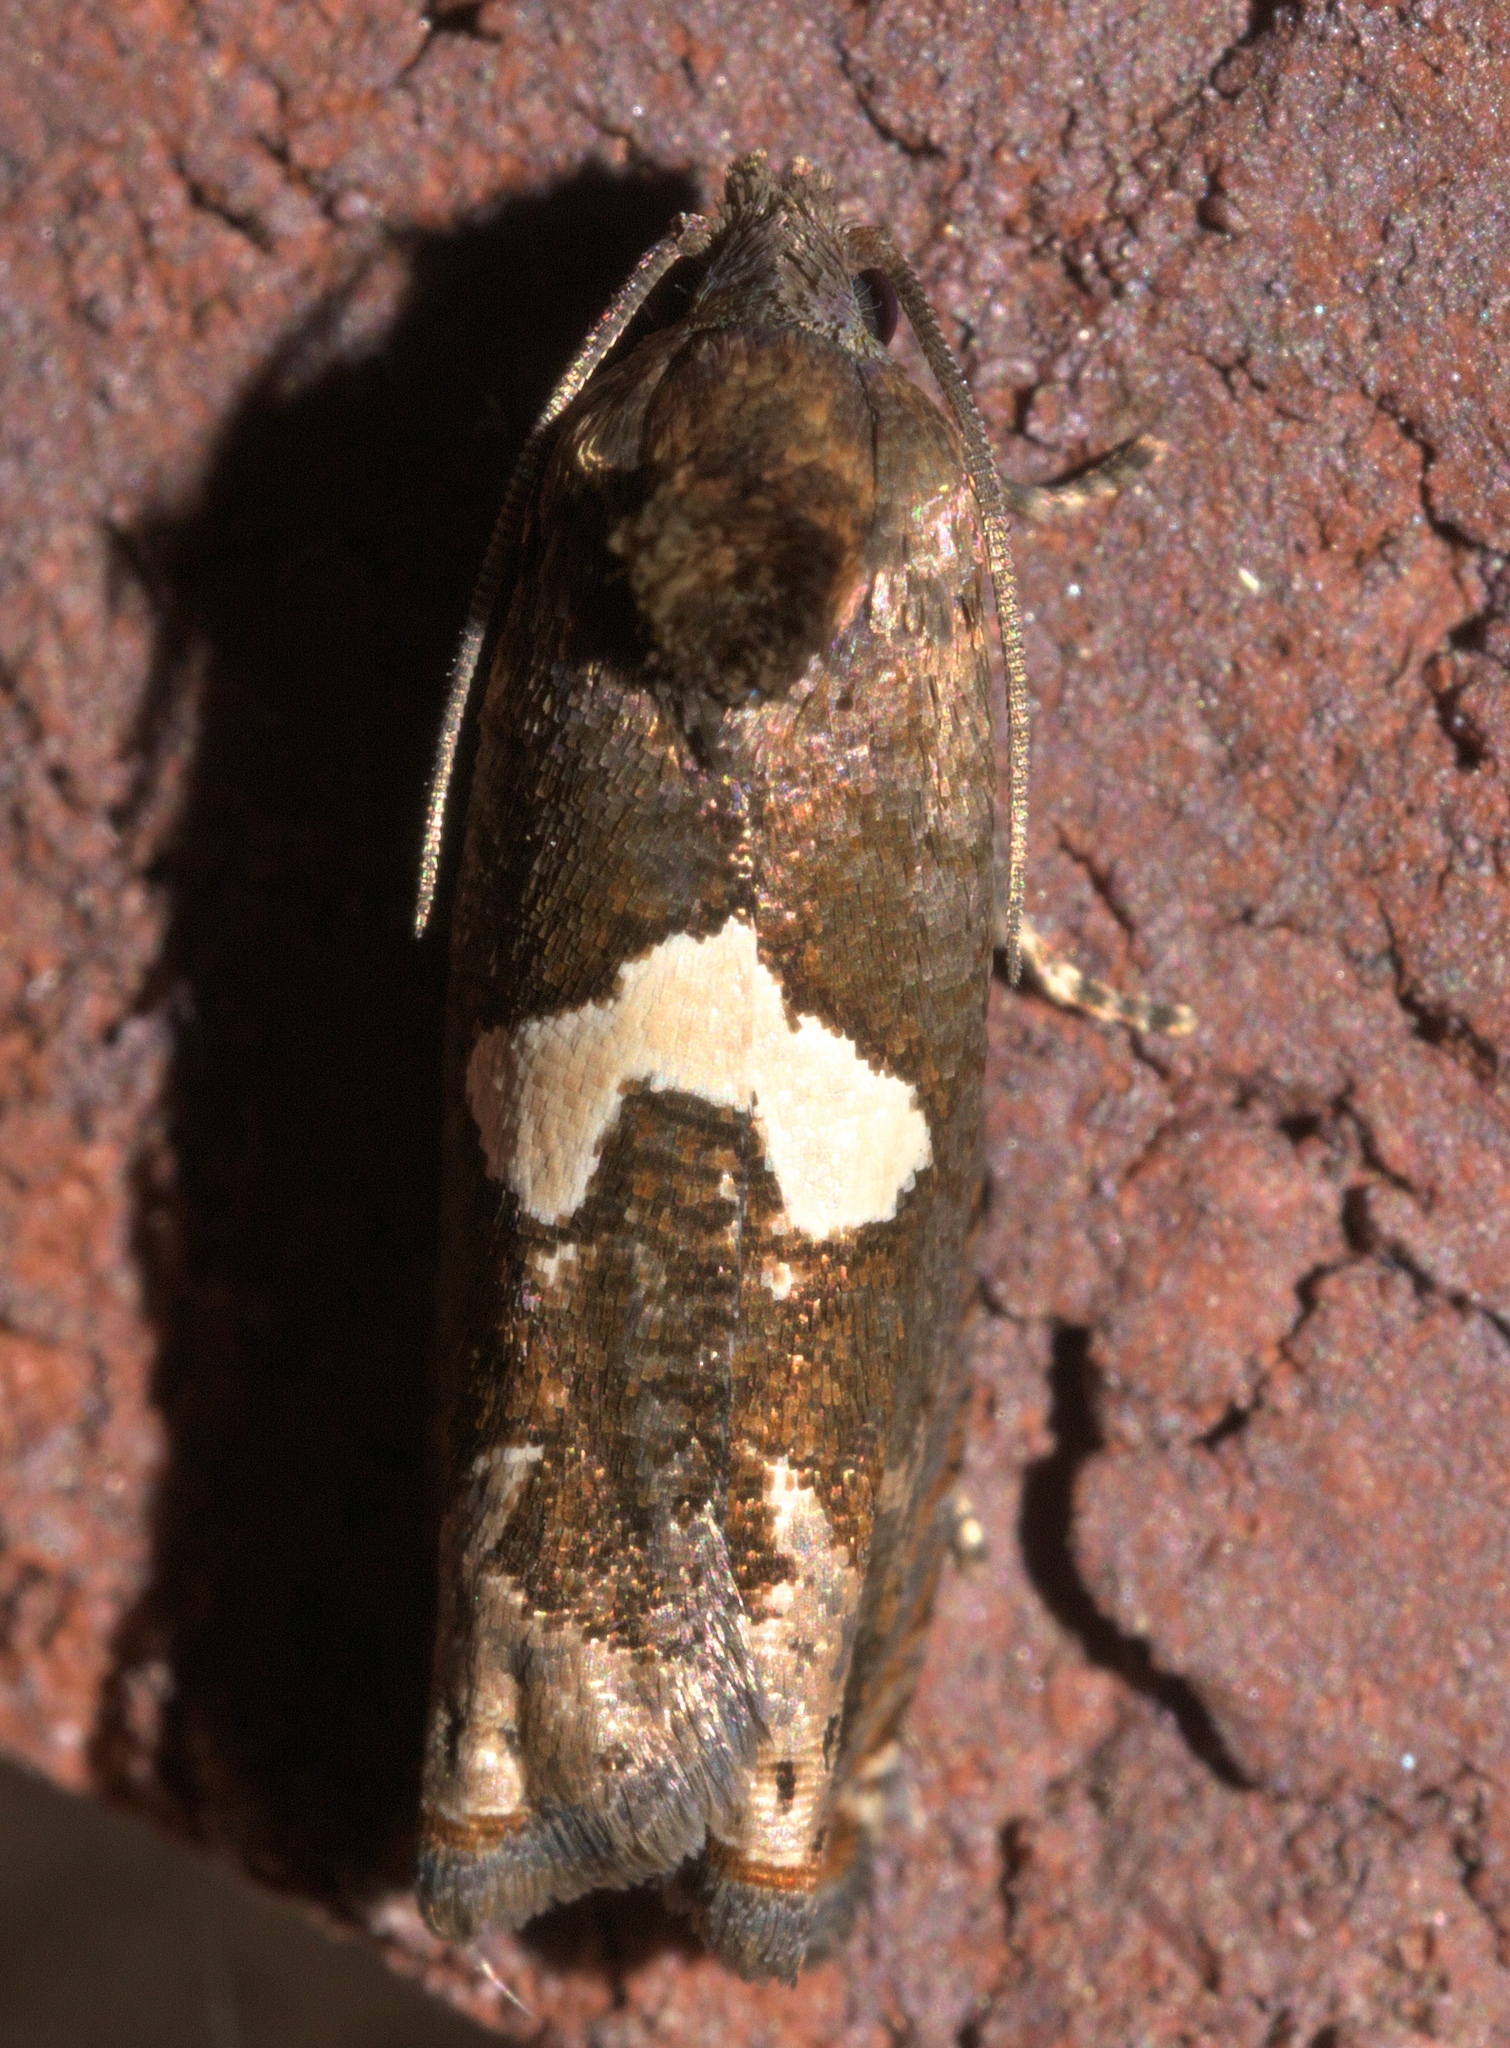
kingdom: Animalia
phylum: Arthropoda
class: Insecta
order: Lepidoptera
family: Tortricidae
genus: Epiblema
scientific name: Epiblema otiosana
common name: Bidens borer moth
